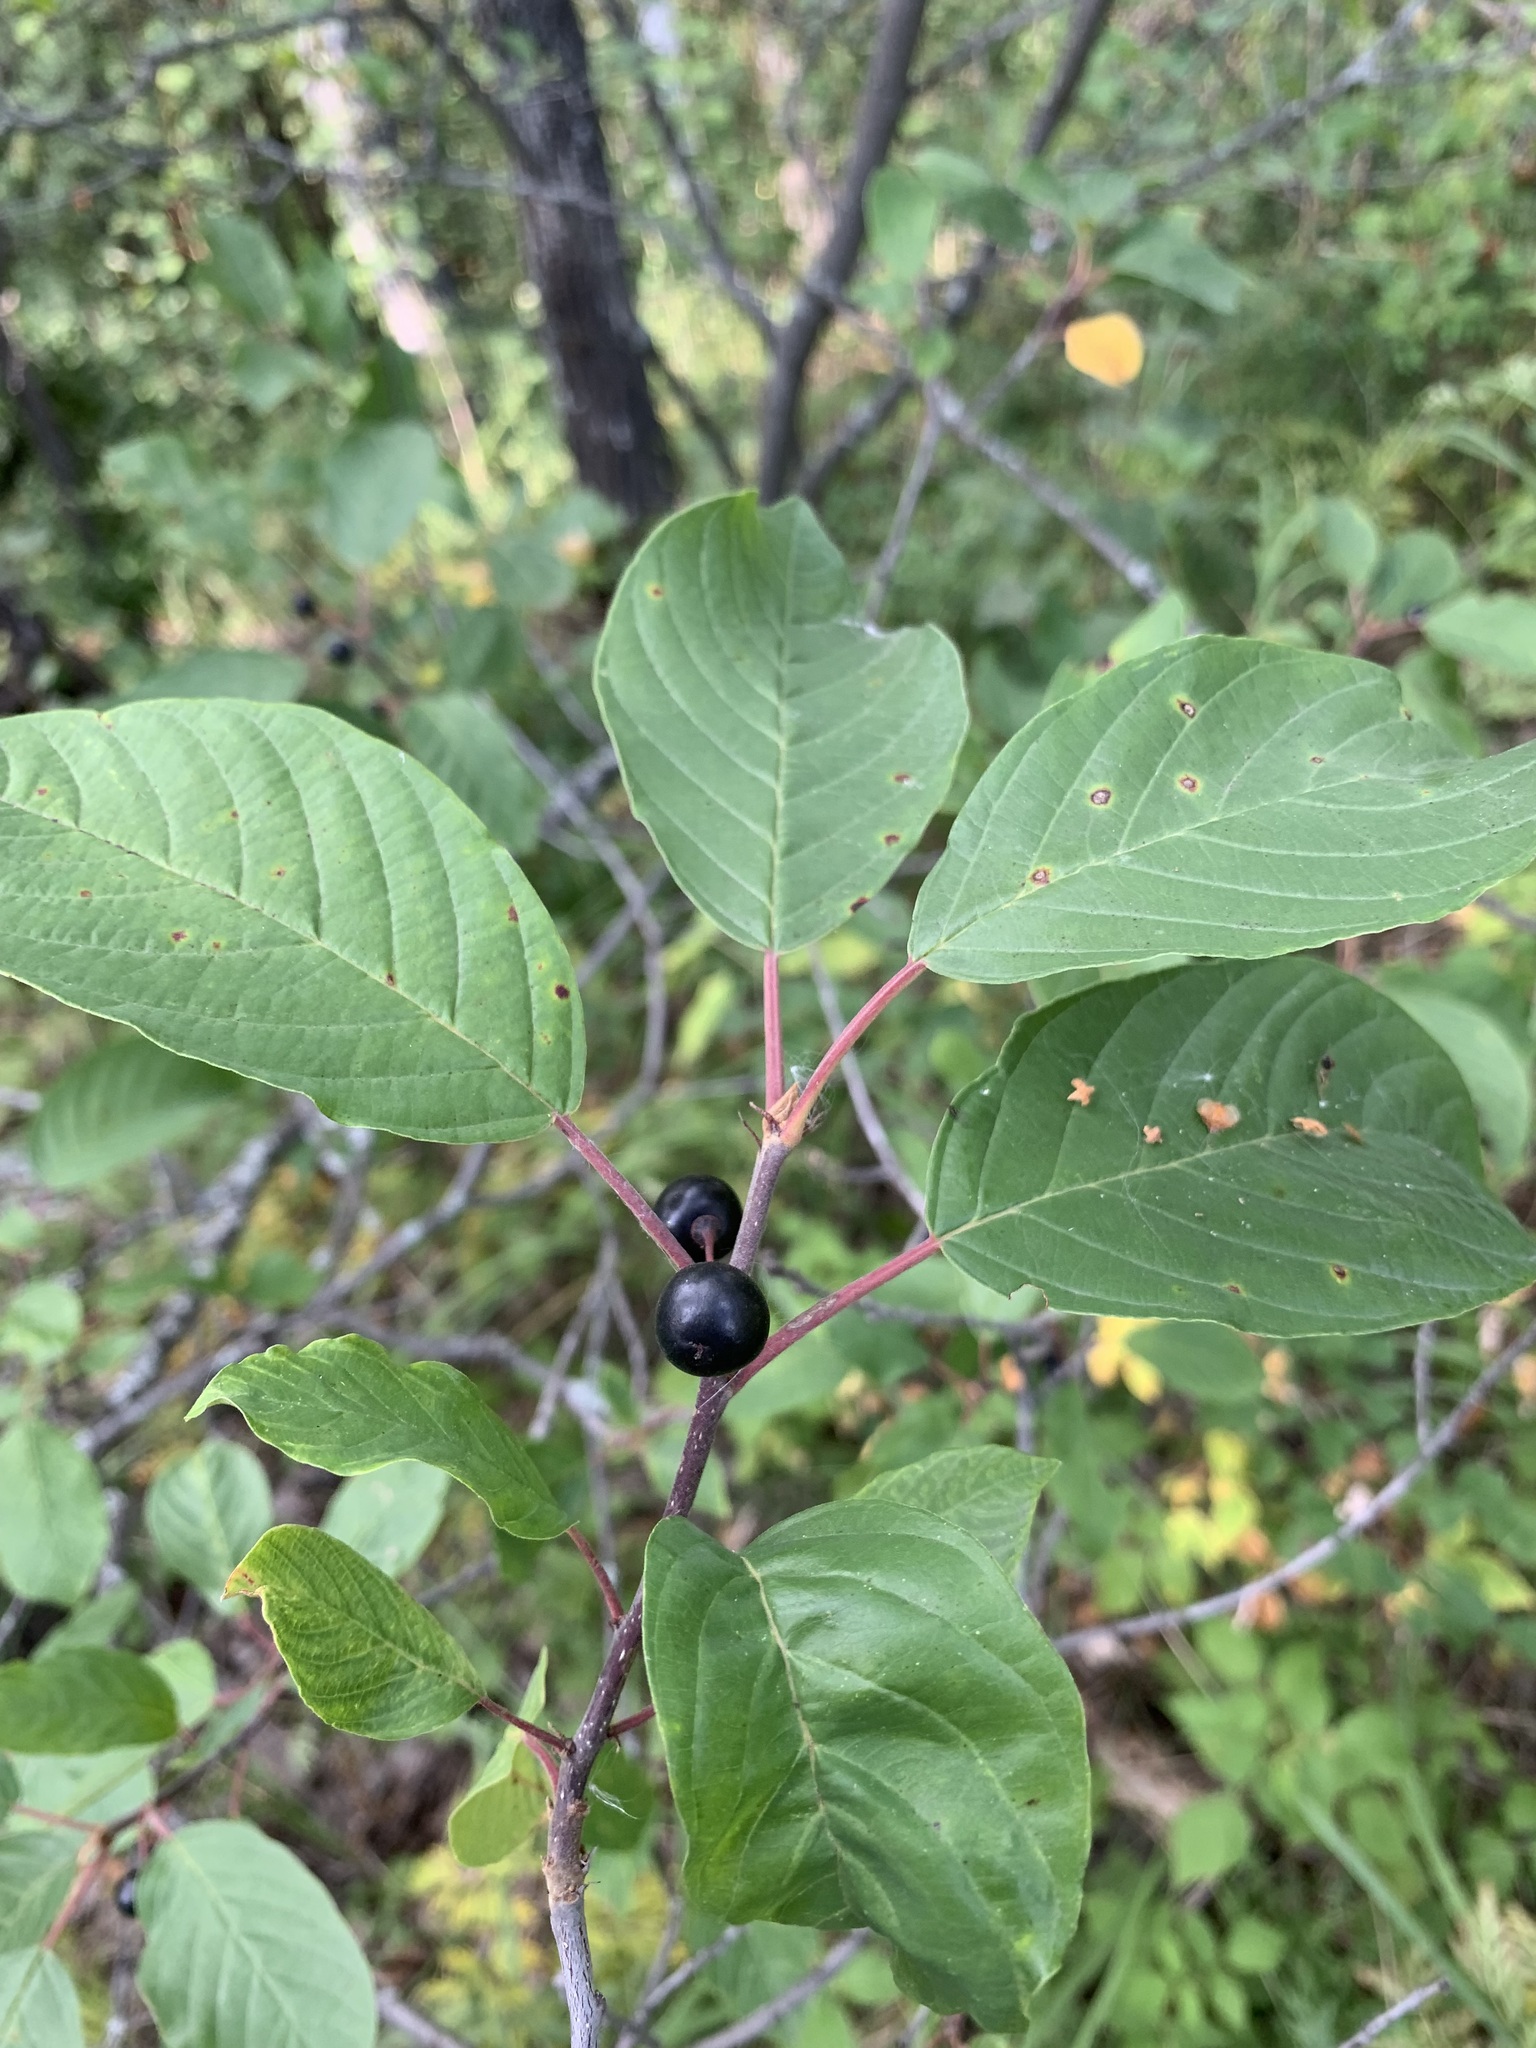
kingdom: Plantae
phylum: Tracheophyta
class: Magnoliopsida
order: Rosales
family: Rhamnaceae
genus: Frangula
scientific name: Frangula alnus
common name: Alder buckthorn
